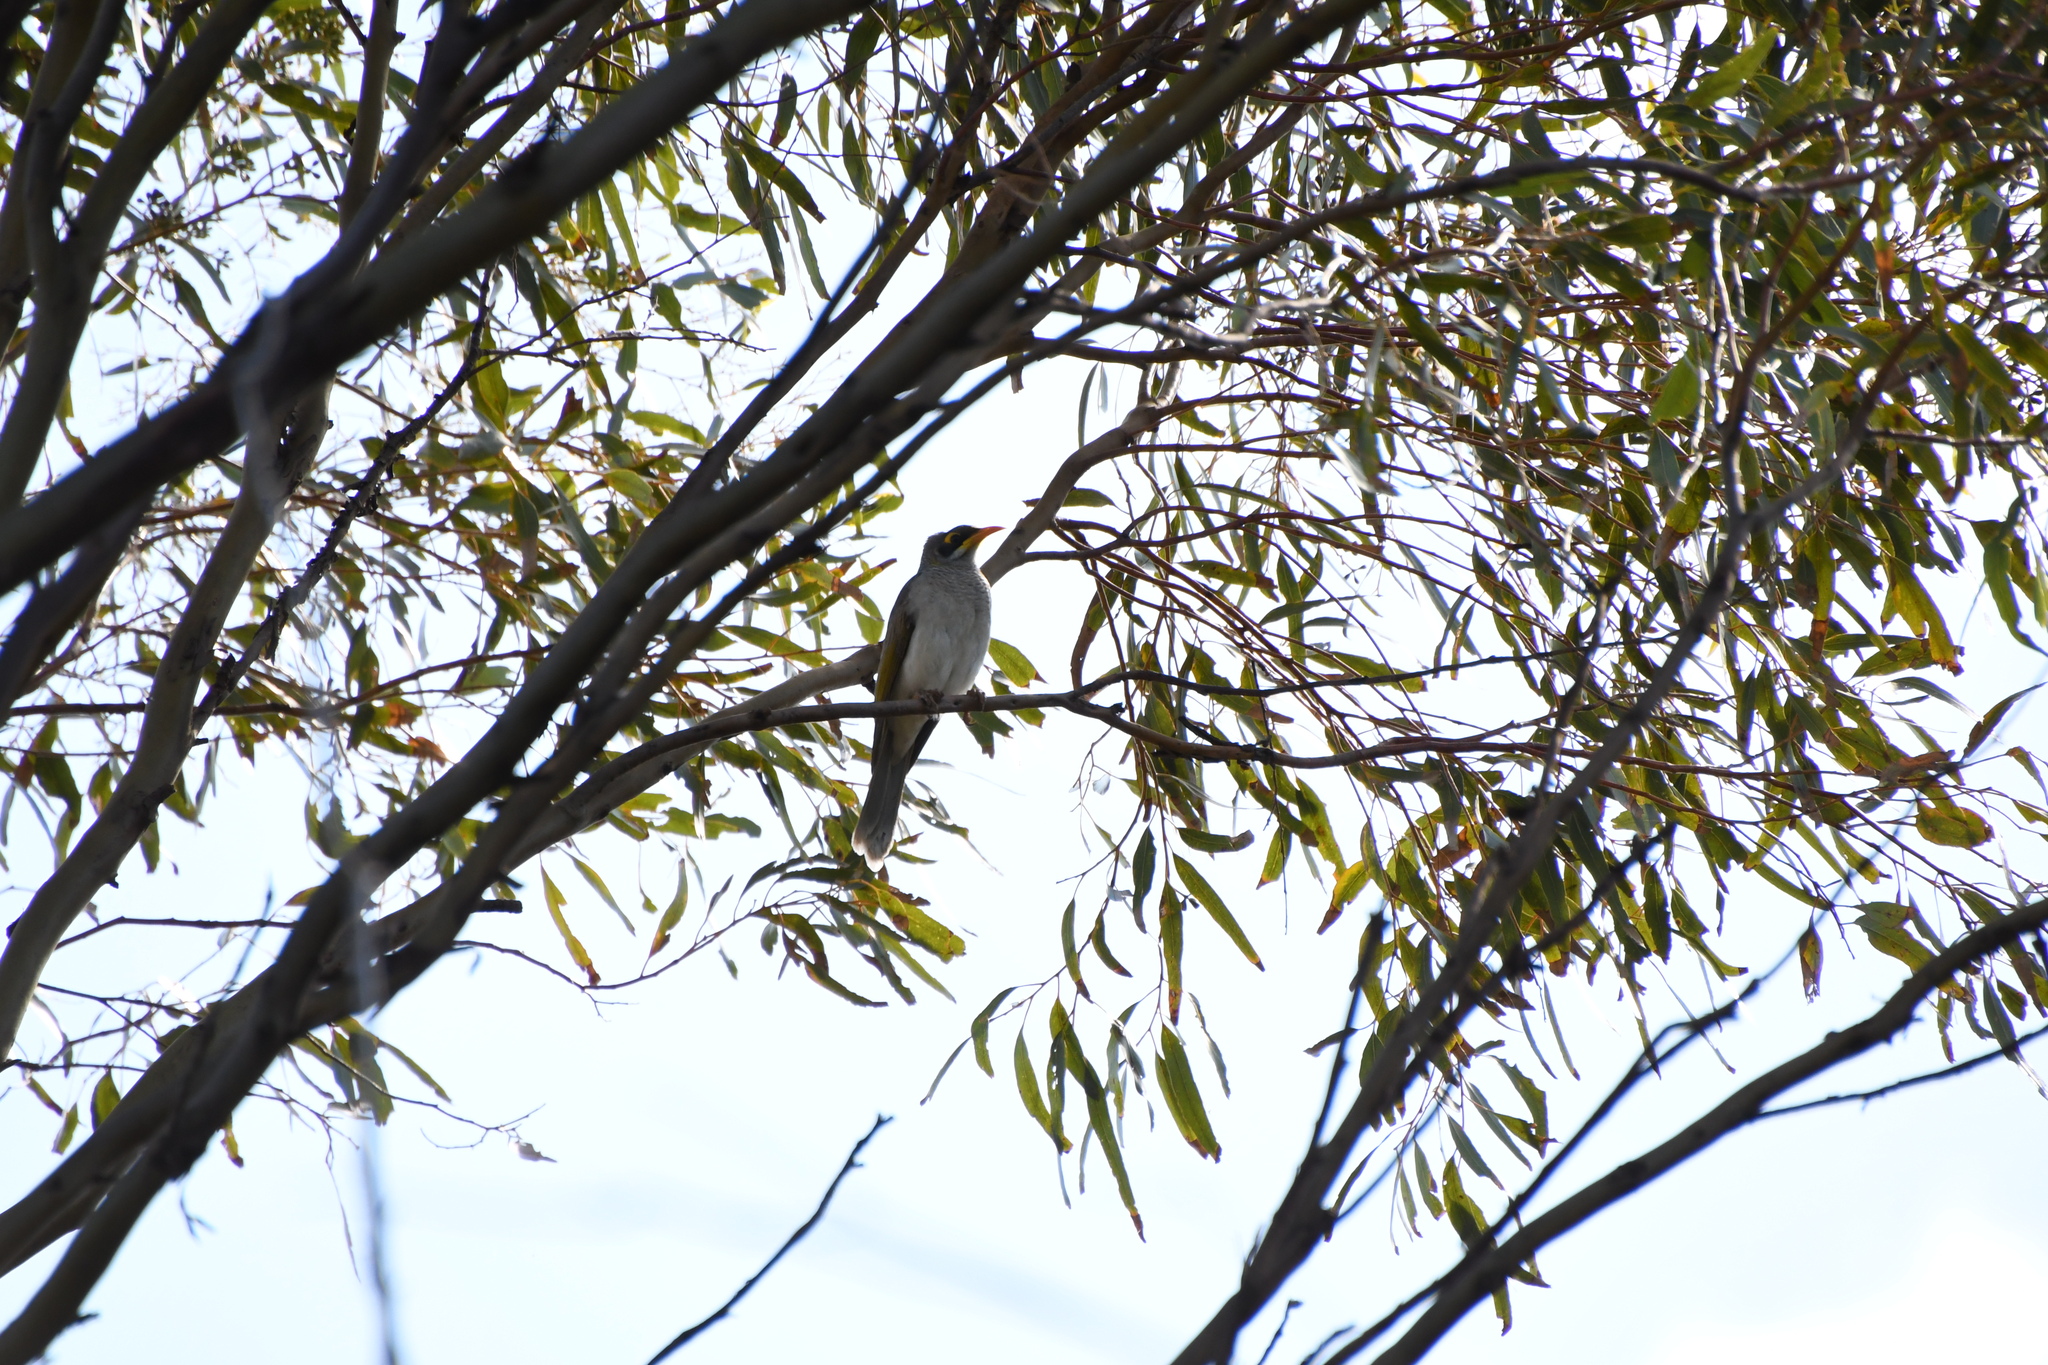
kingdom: Animalia
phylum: Chordata
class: Aves
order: Passeriformes
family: Meliphagidae
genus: Manorina
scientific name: Manorina flavigula
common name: Yellow-throated miner
